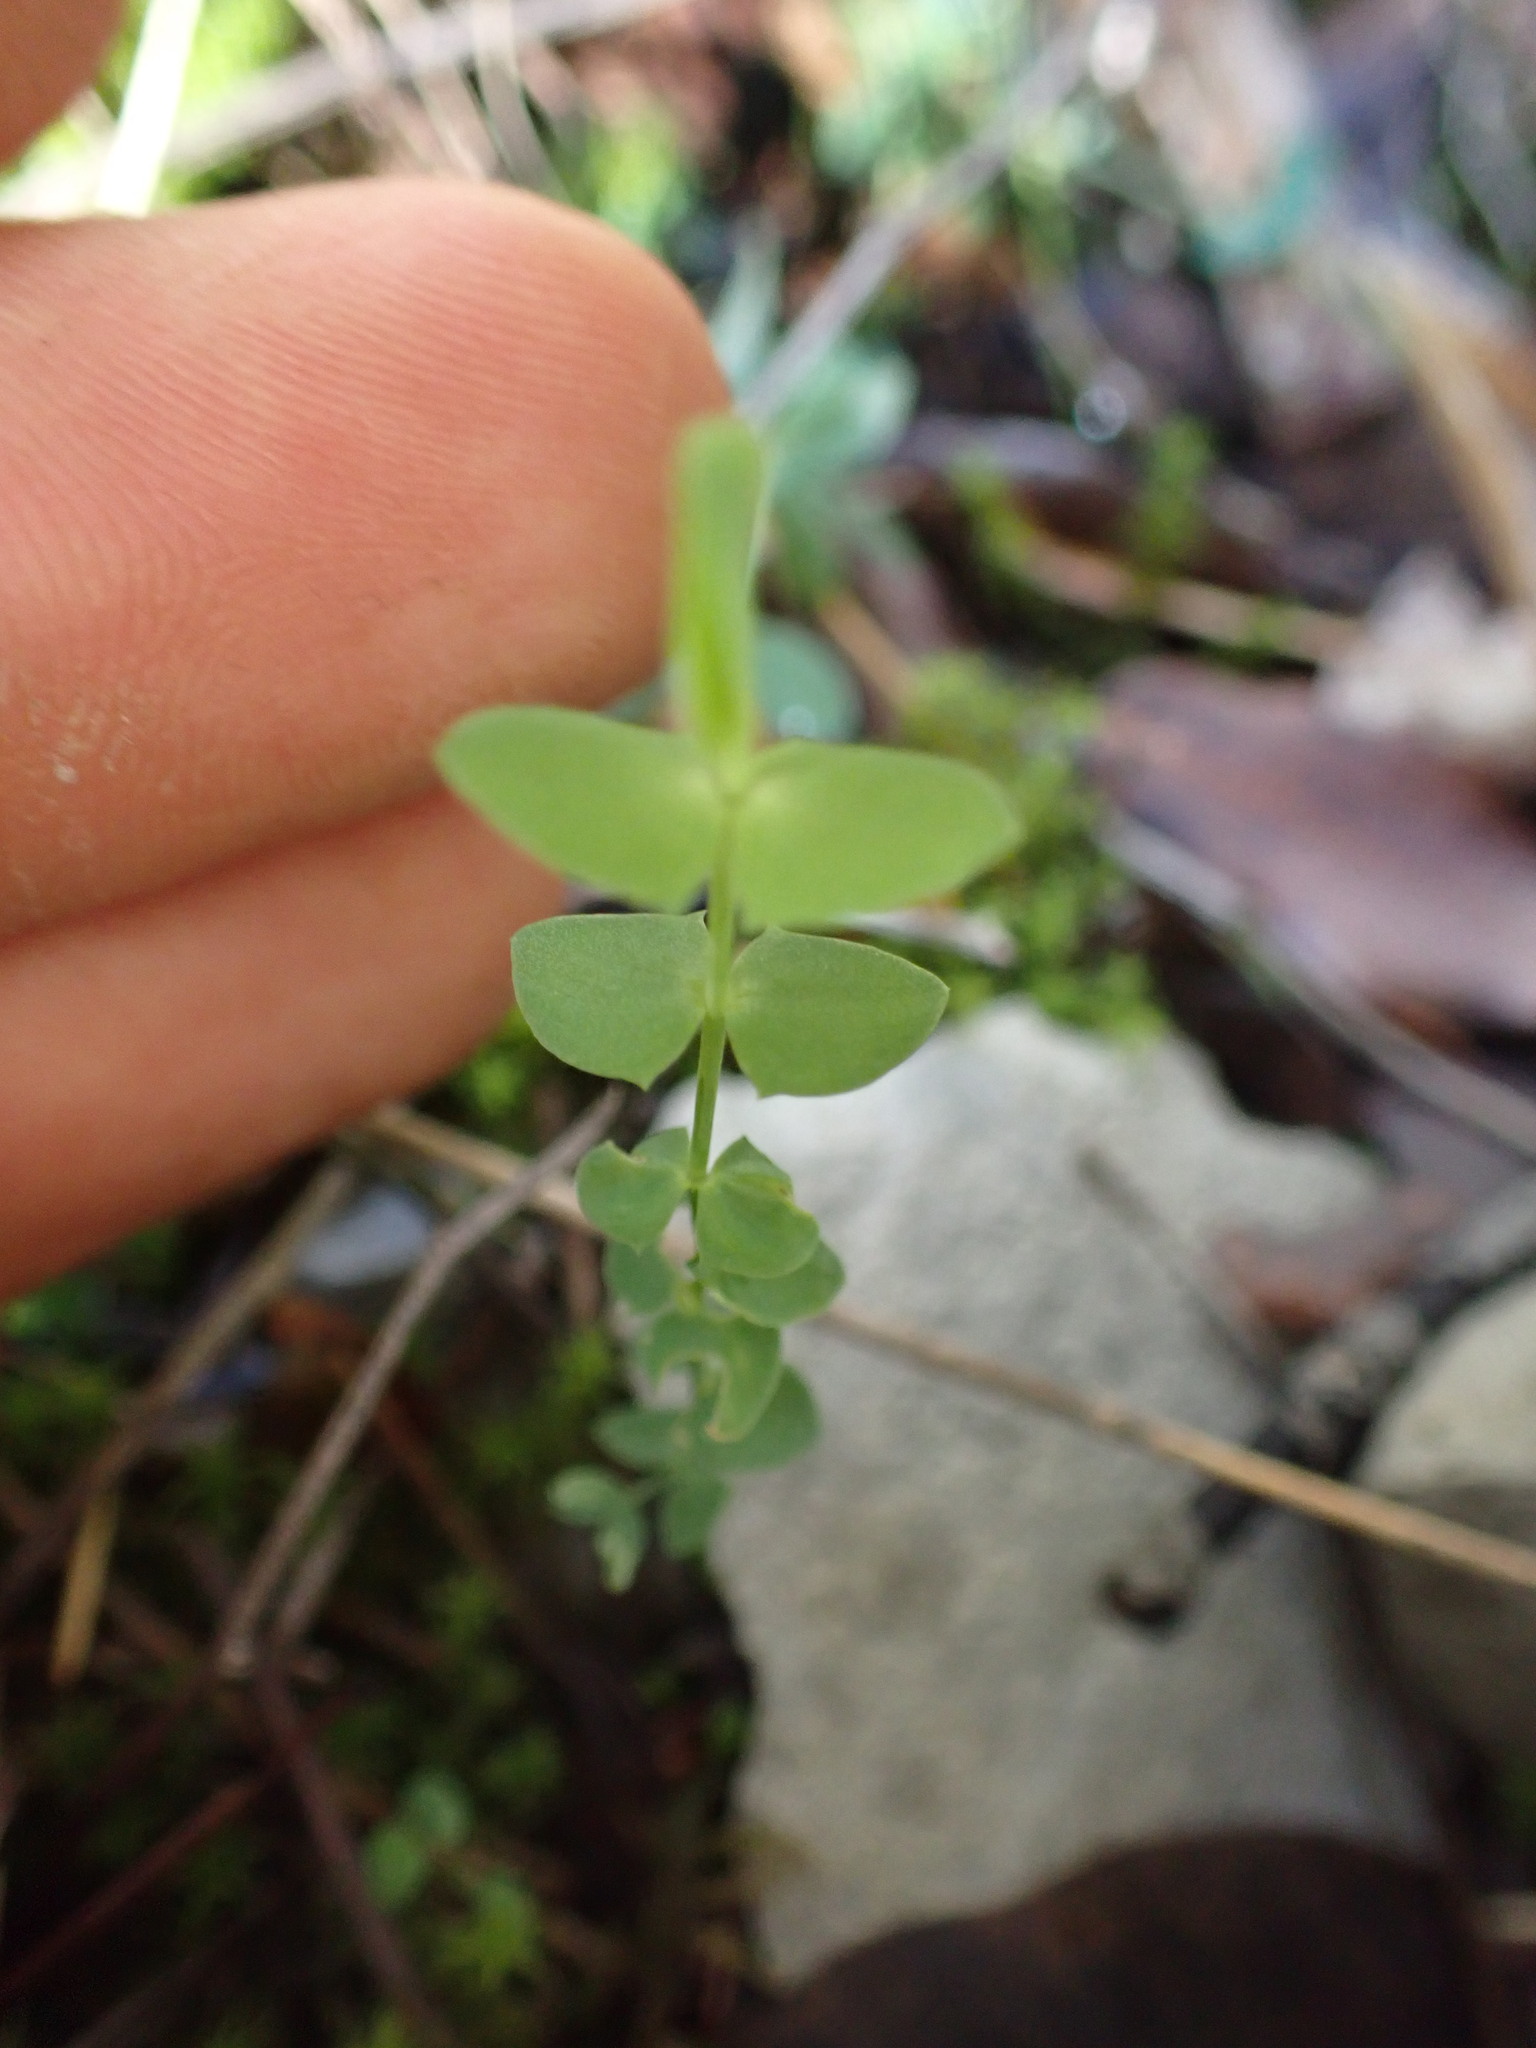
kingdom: Plantae
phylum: Tracheophyta
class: Magnoliopsida
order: Fabales
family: Fabaceae
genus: Lathyrus
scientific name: Lathyrus aphaca
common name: Yellow vetchling
